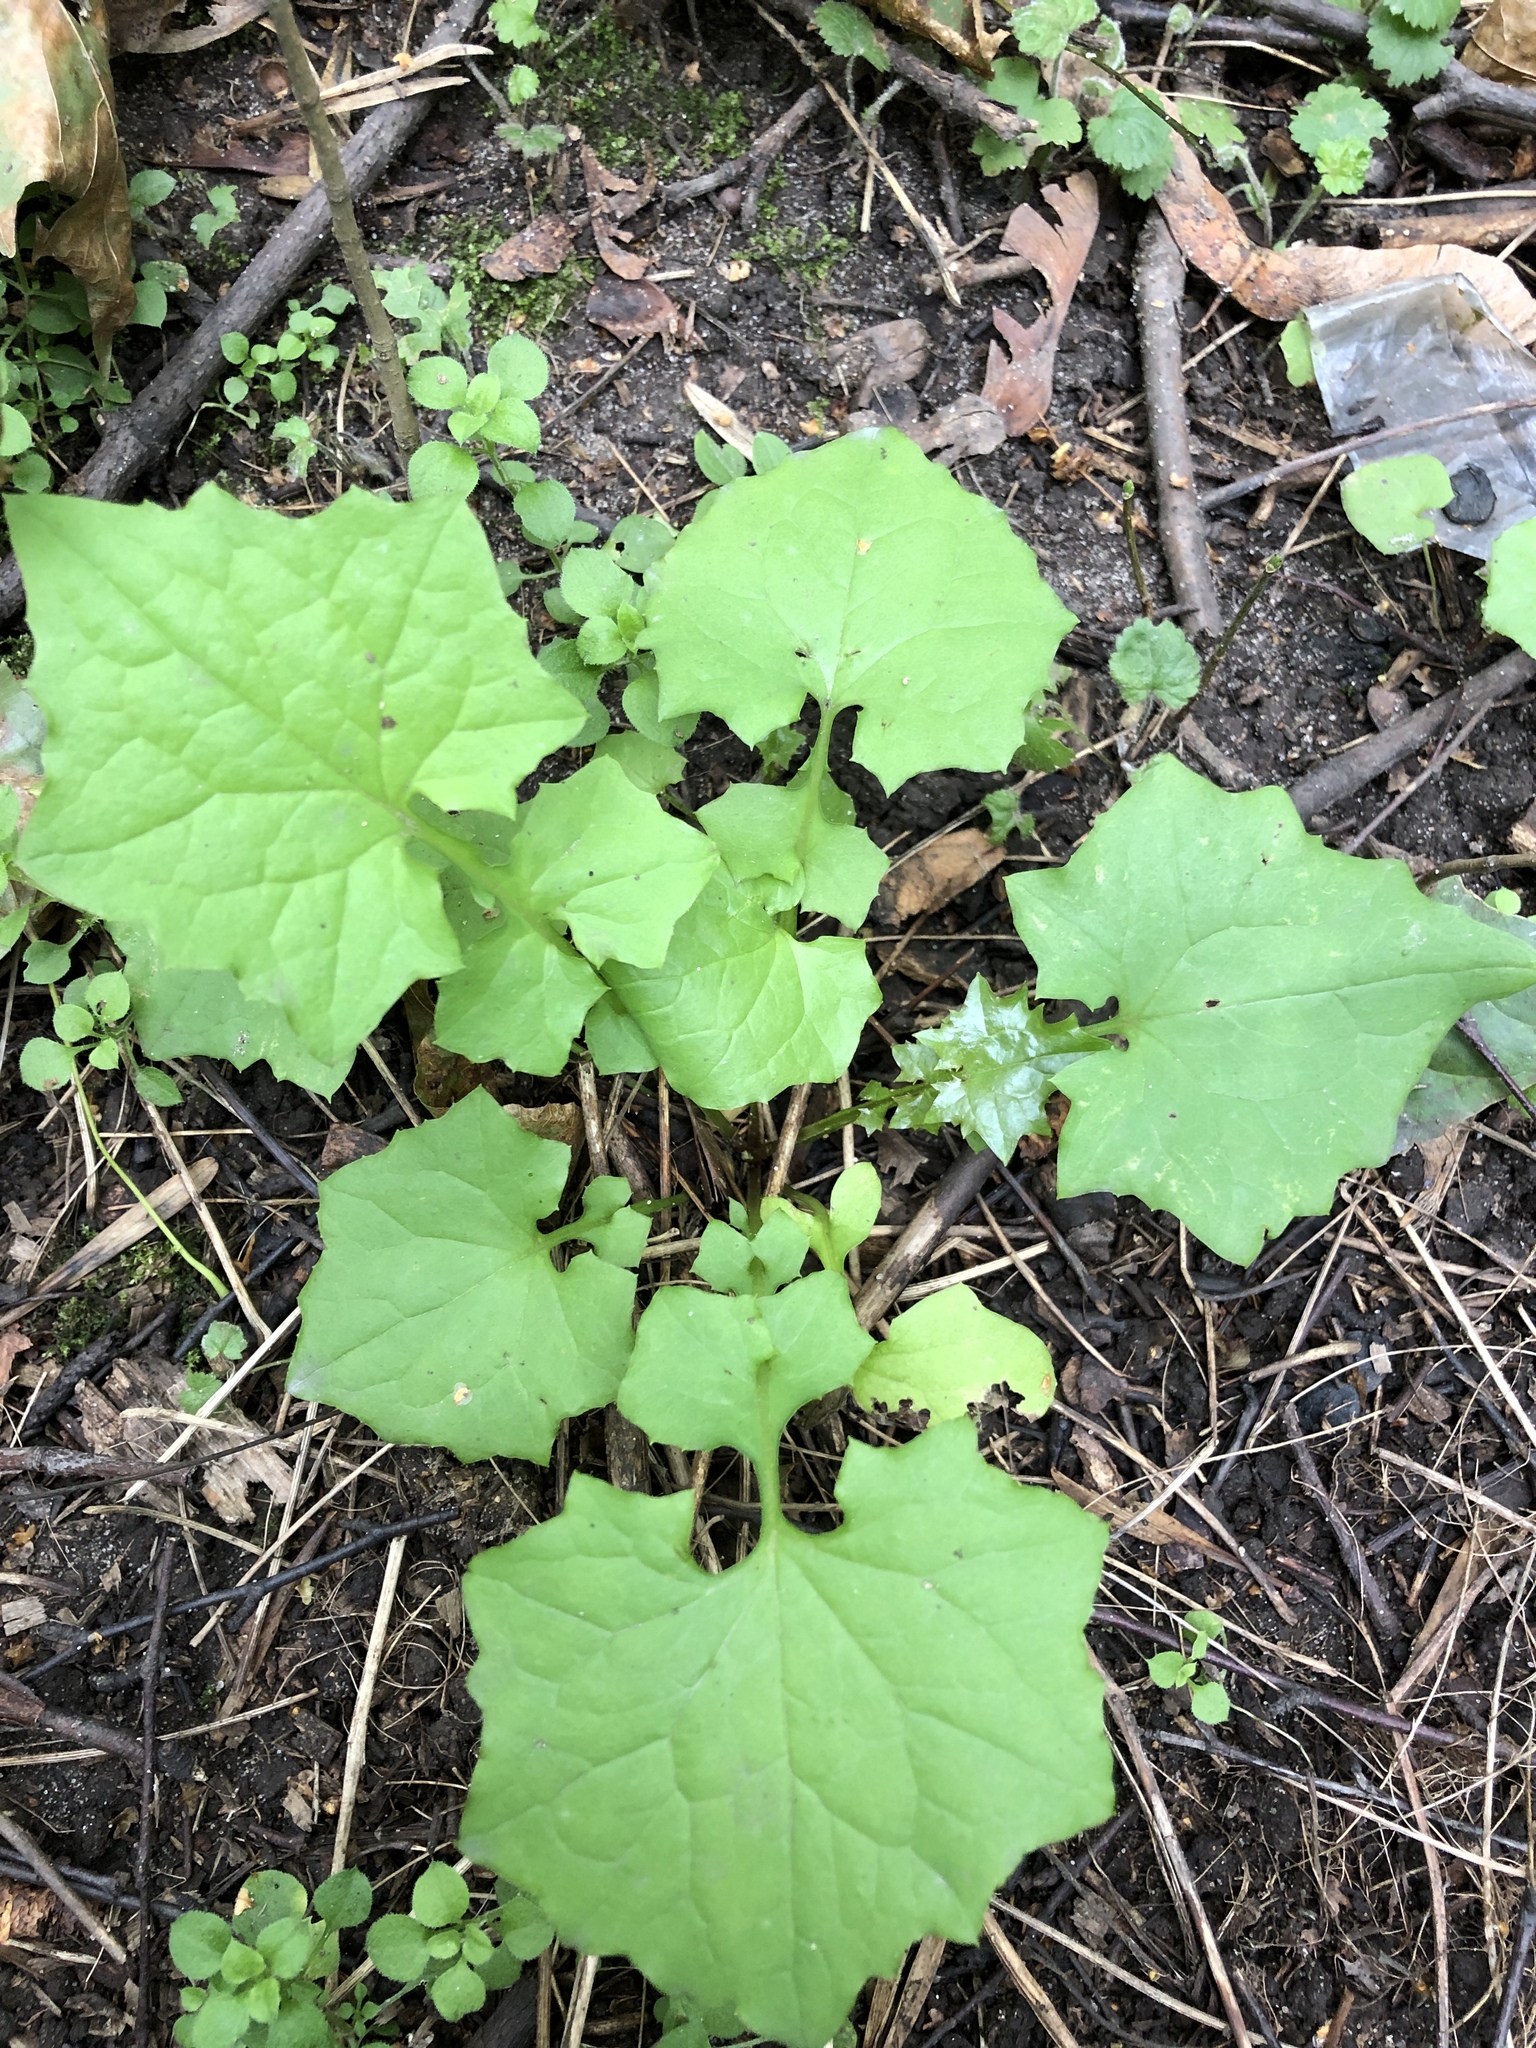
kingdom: Plantae
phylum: Tracheophyta
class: Magnoliopsida
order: Asterales
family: Asteraceae
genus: Mycelis
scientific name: Mycelis muralis
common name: Wall lettuce
